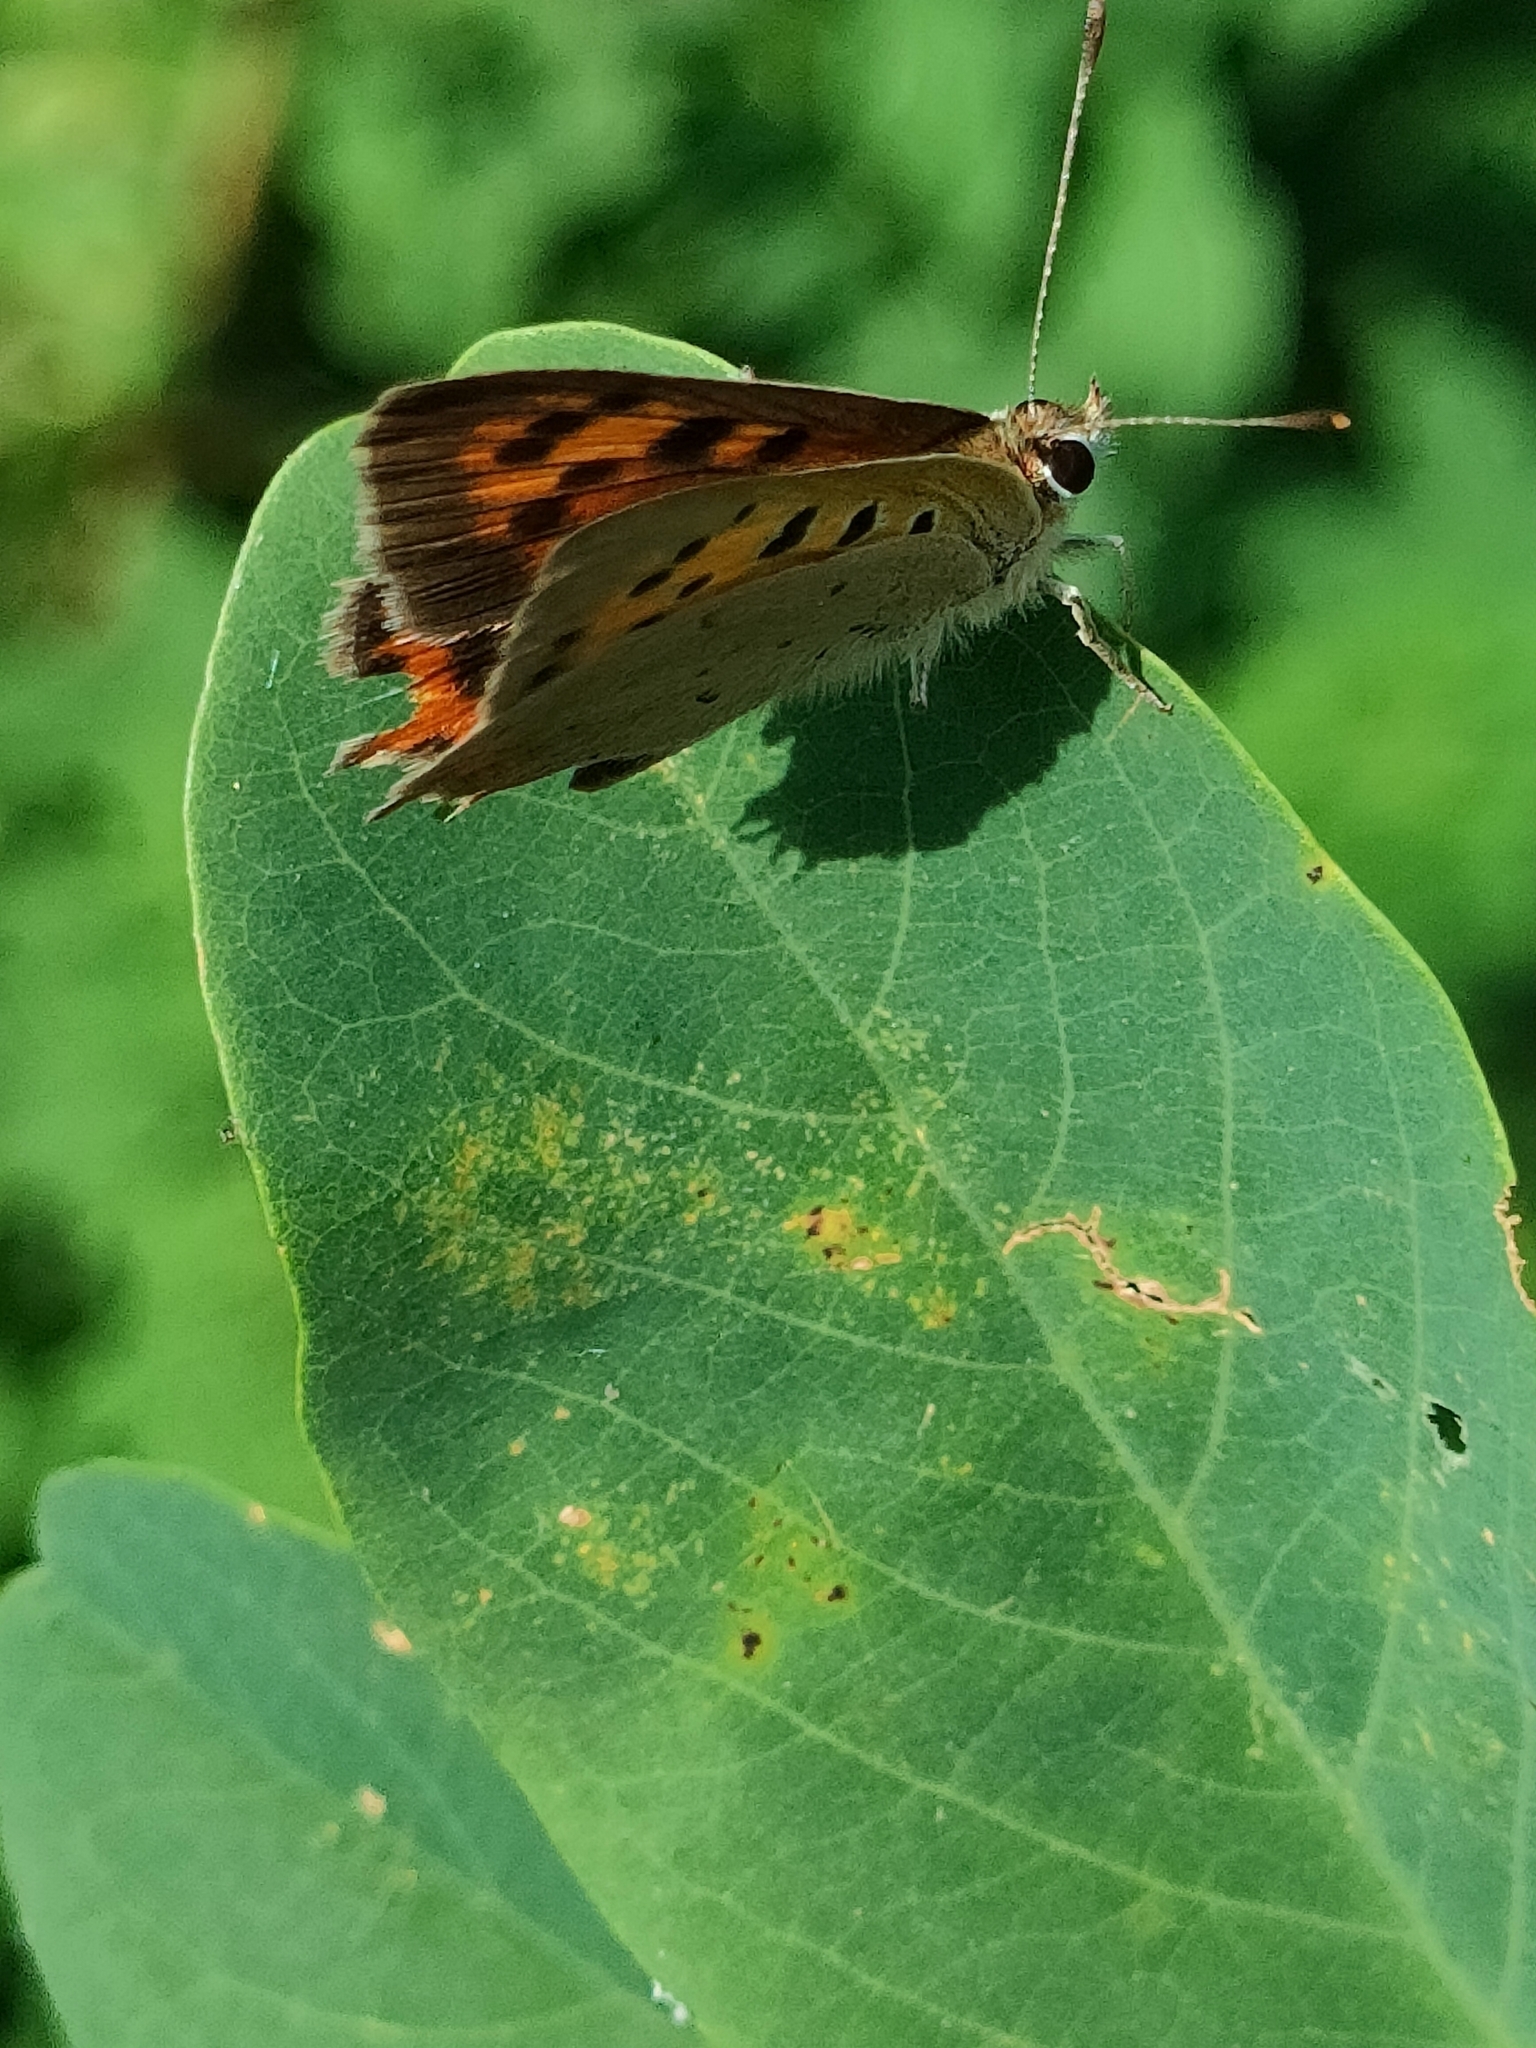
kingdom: Animalia
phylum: Arthropoda
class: Insecta
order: Lepidoptera
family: Lycaenidae
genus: Lycaena
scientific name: Lycaena phlaeas
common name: Small copper
